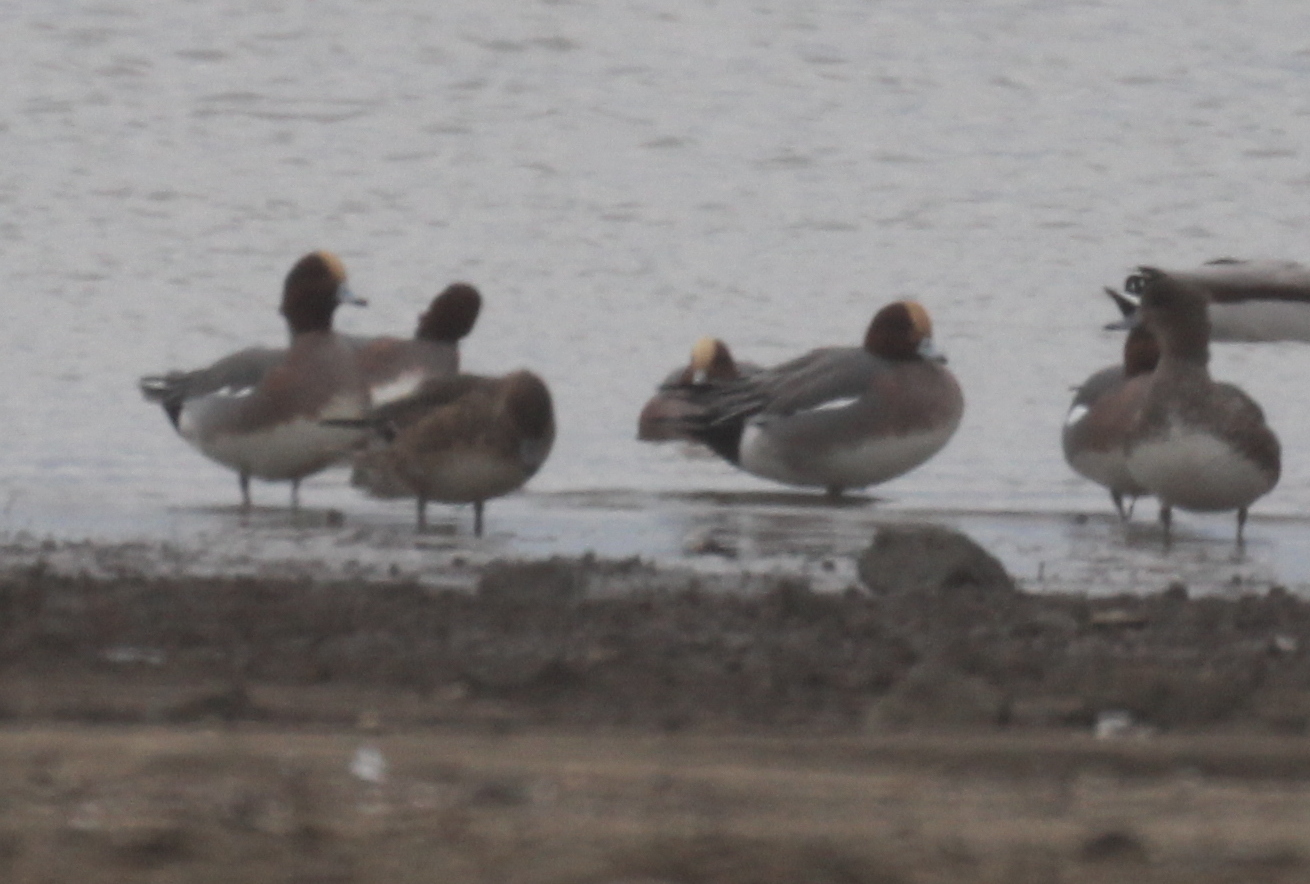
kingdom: Animalia
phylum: Chordata
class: Aves
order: Anseriformes
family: Anatidae
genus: Mareca
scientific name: Mareca penelope
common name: Eurasian wigeon
